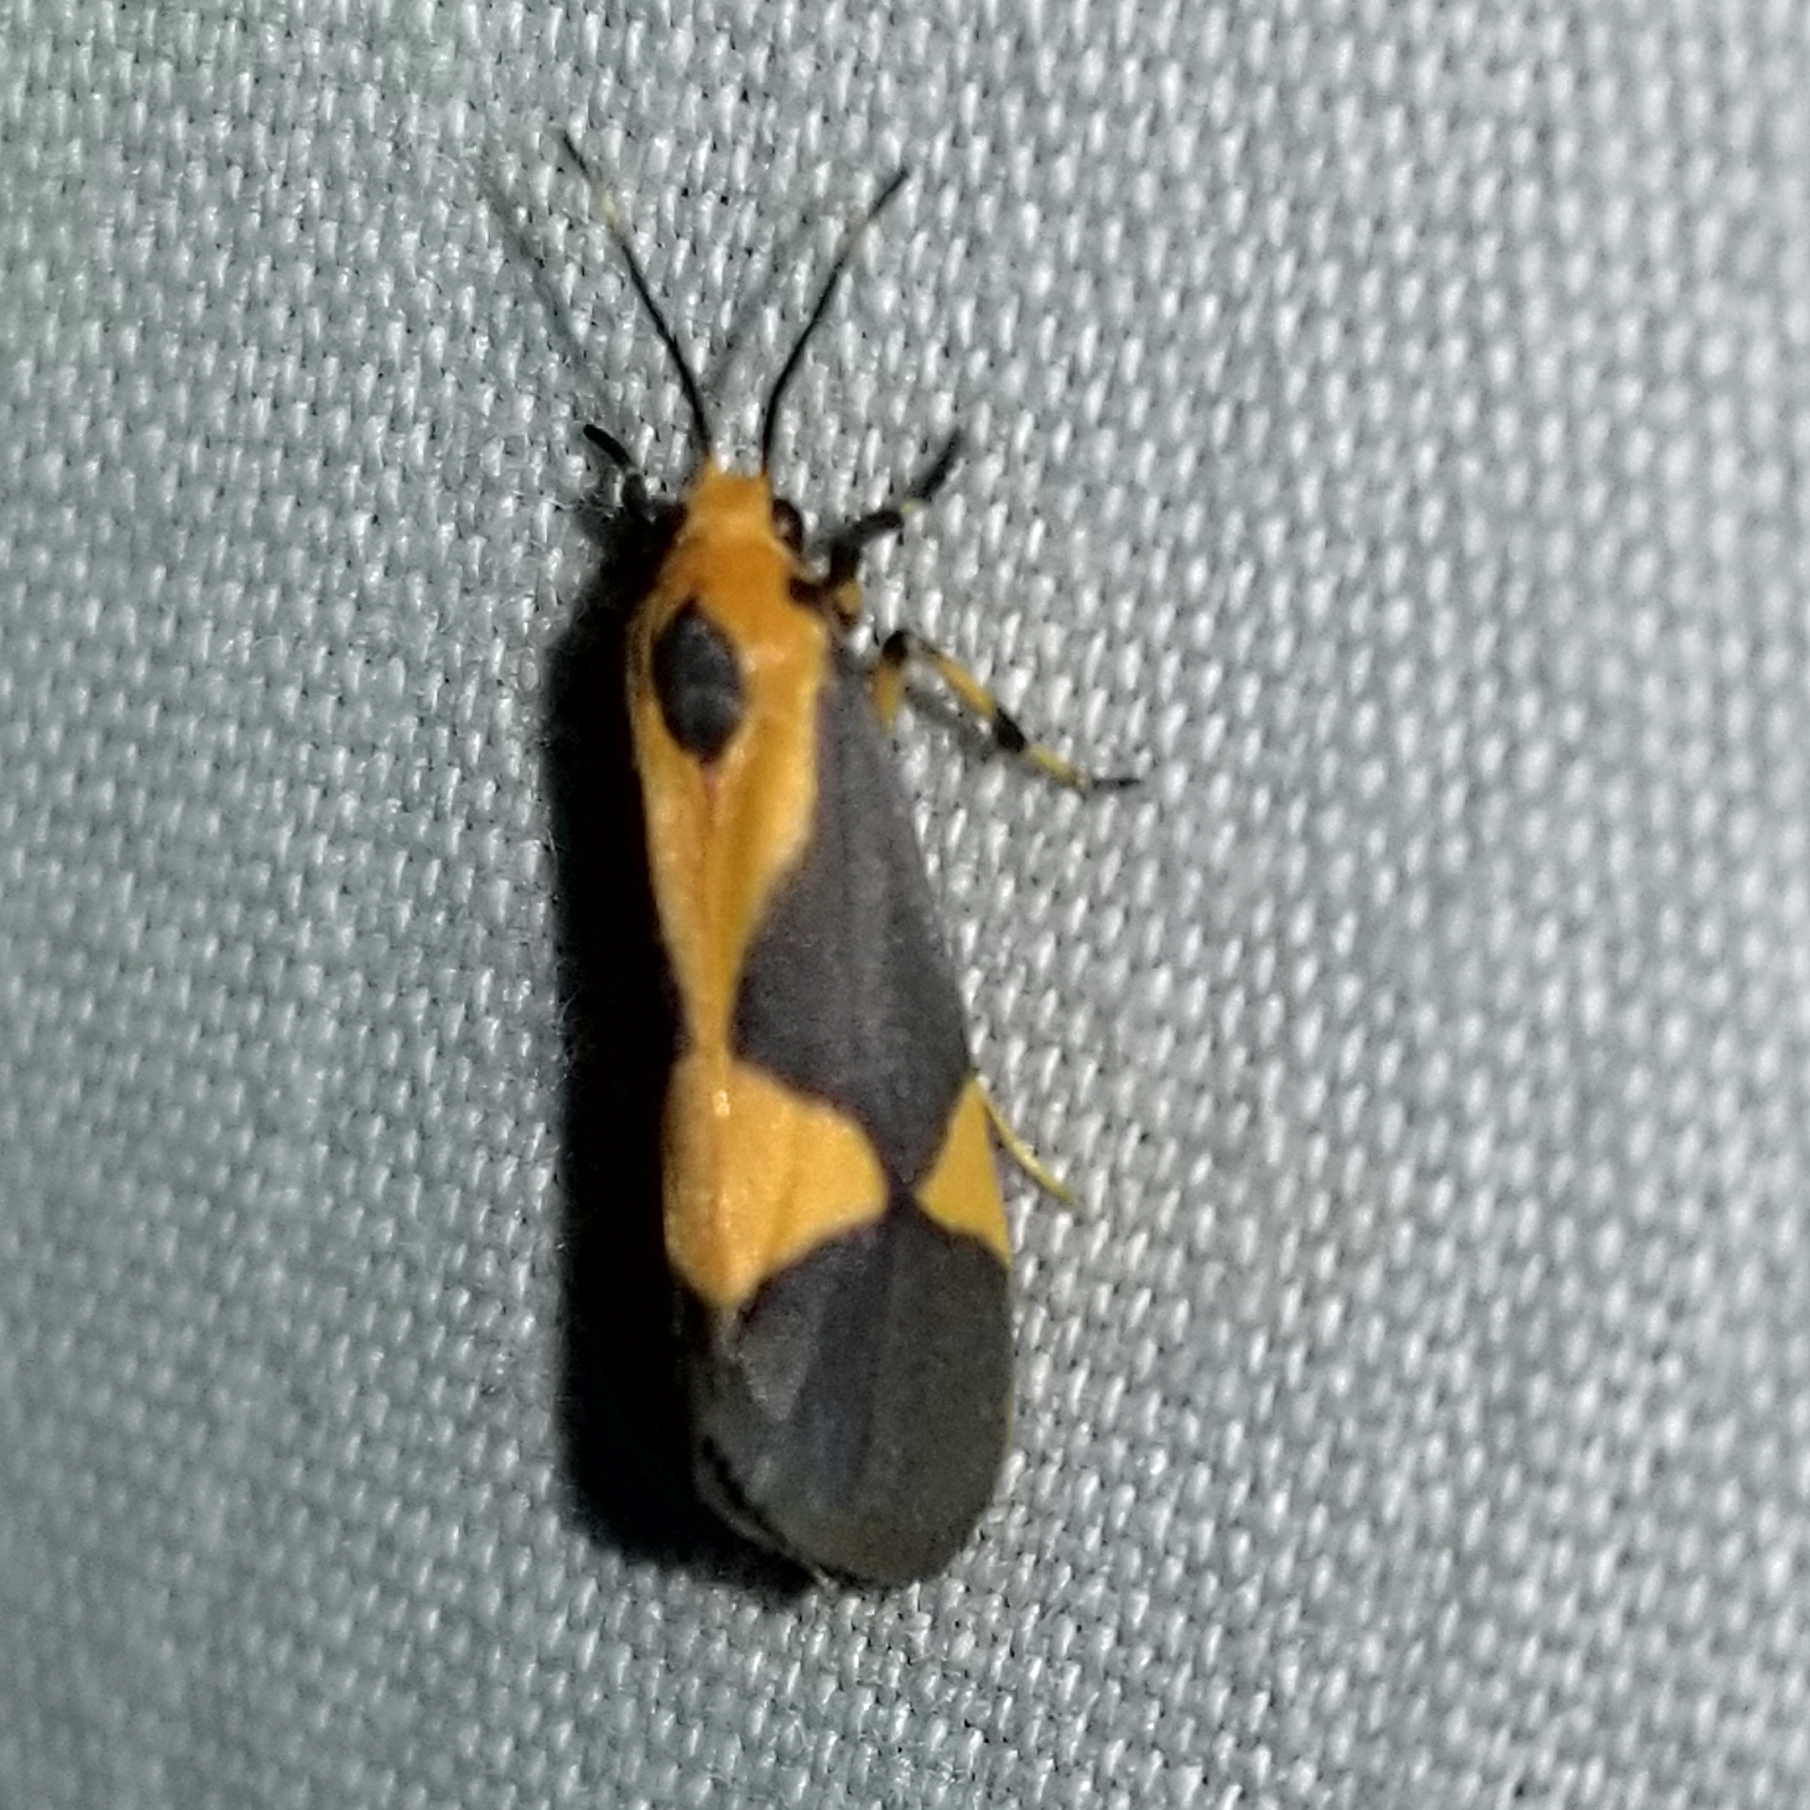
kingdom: Animalia
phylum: Arthropoda
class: Insecta
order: Lepidoptera
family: Erebidae
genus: Cisthene
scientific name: Cisthene unifascia
